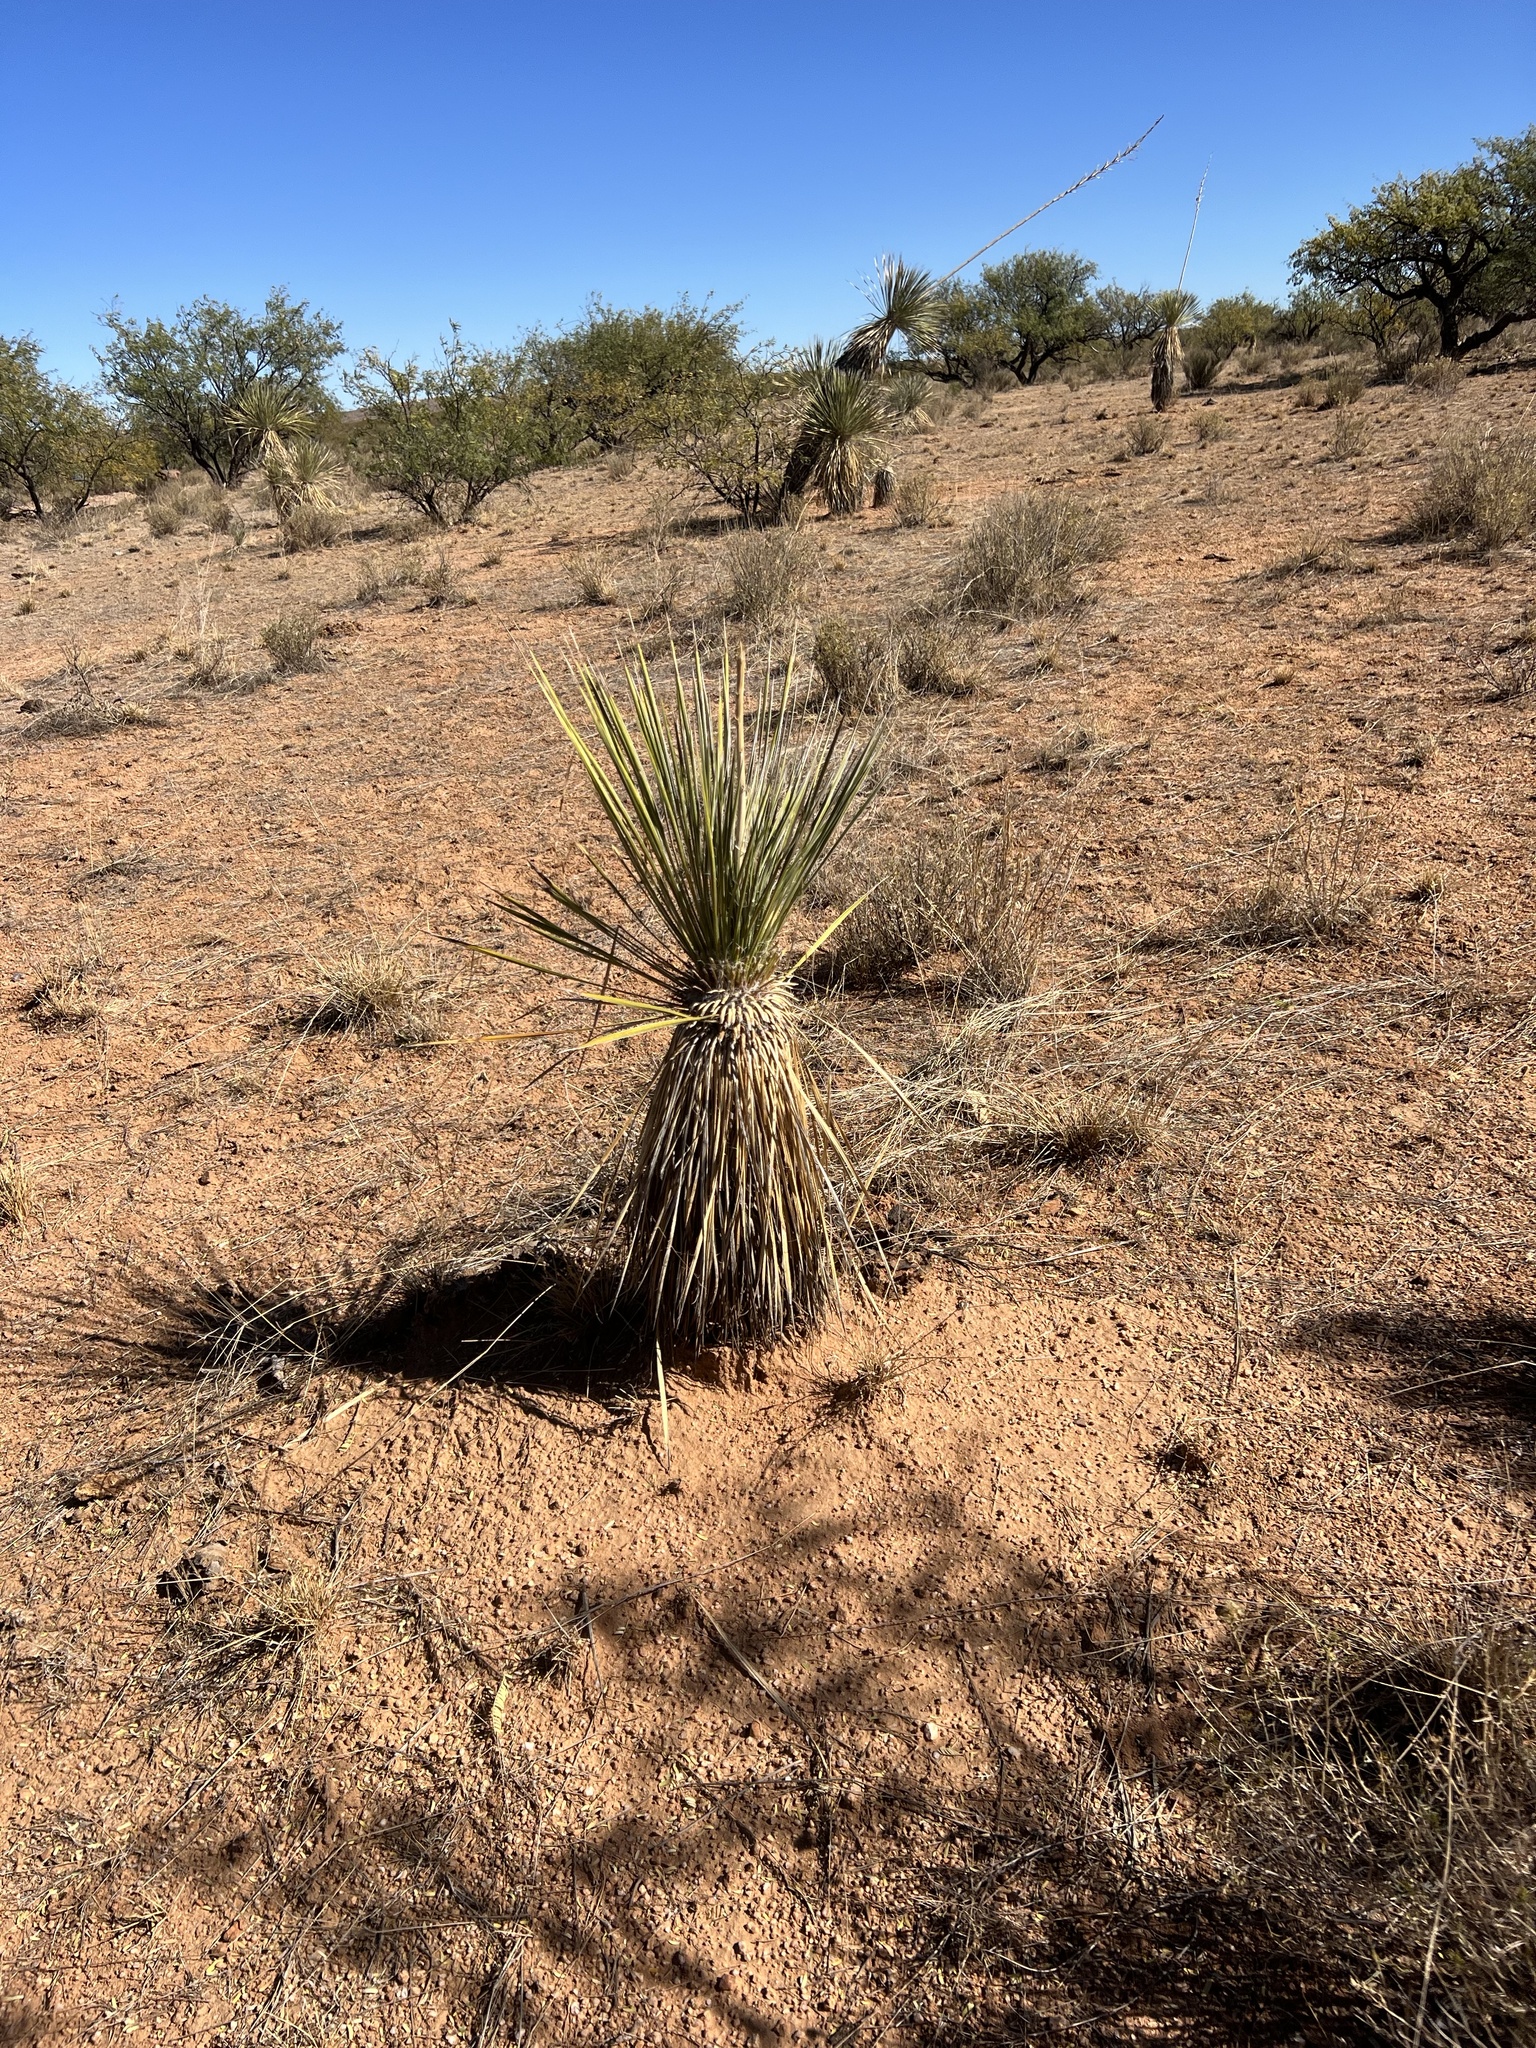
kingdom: Plantae
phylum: Tracheophyta
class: Liliopsida
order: Asparagales
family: Asparagaceae
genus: Yucca
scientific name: Yucca elata
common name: Palmella
